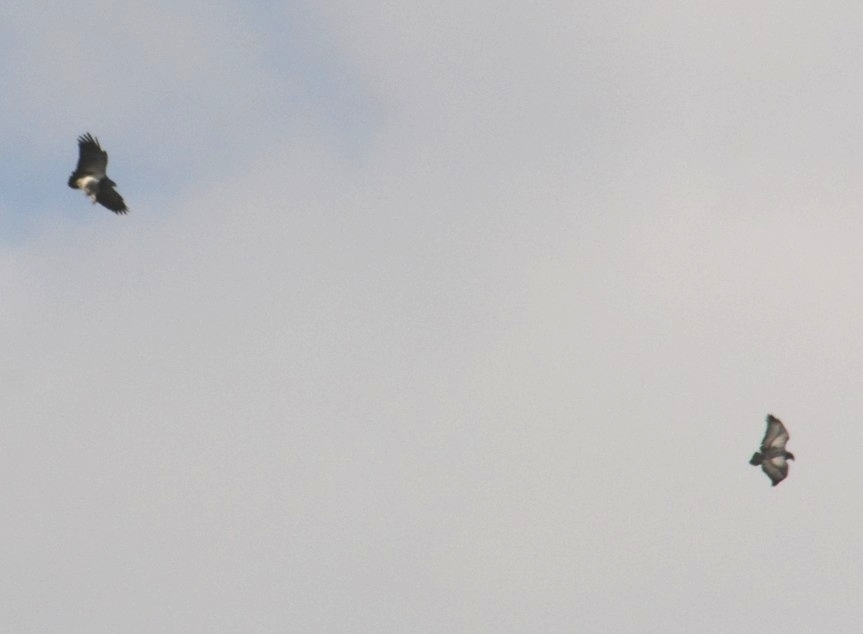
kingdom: Animalia
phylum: Chordata
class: Aves
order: Accipitriformes
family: Accipitridae
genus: Geranoaetus
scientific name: Geranoaetus melanoleucus
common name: Black-chested buzzard-eagle
